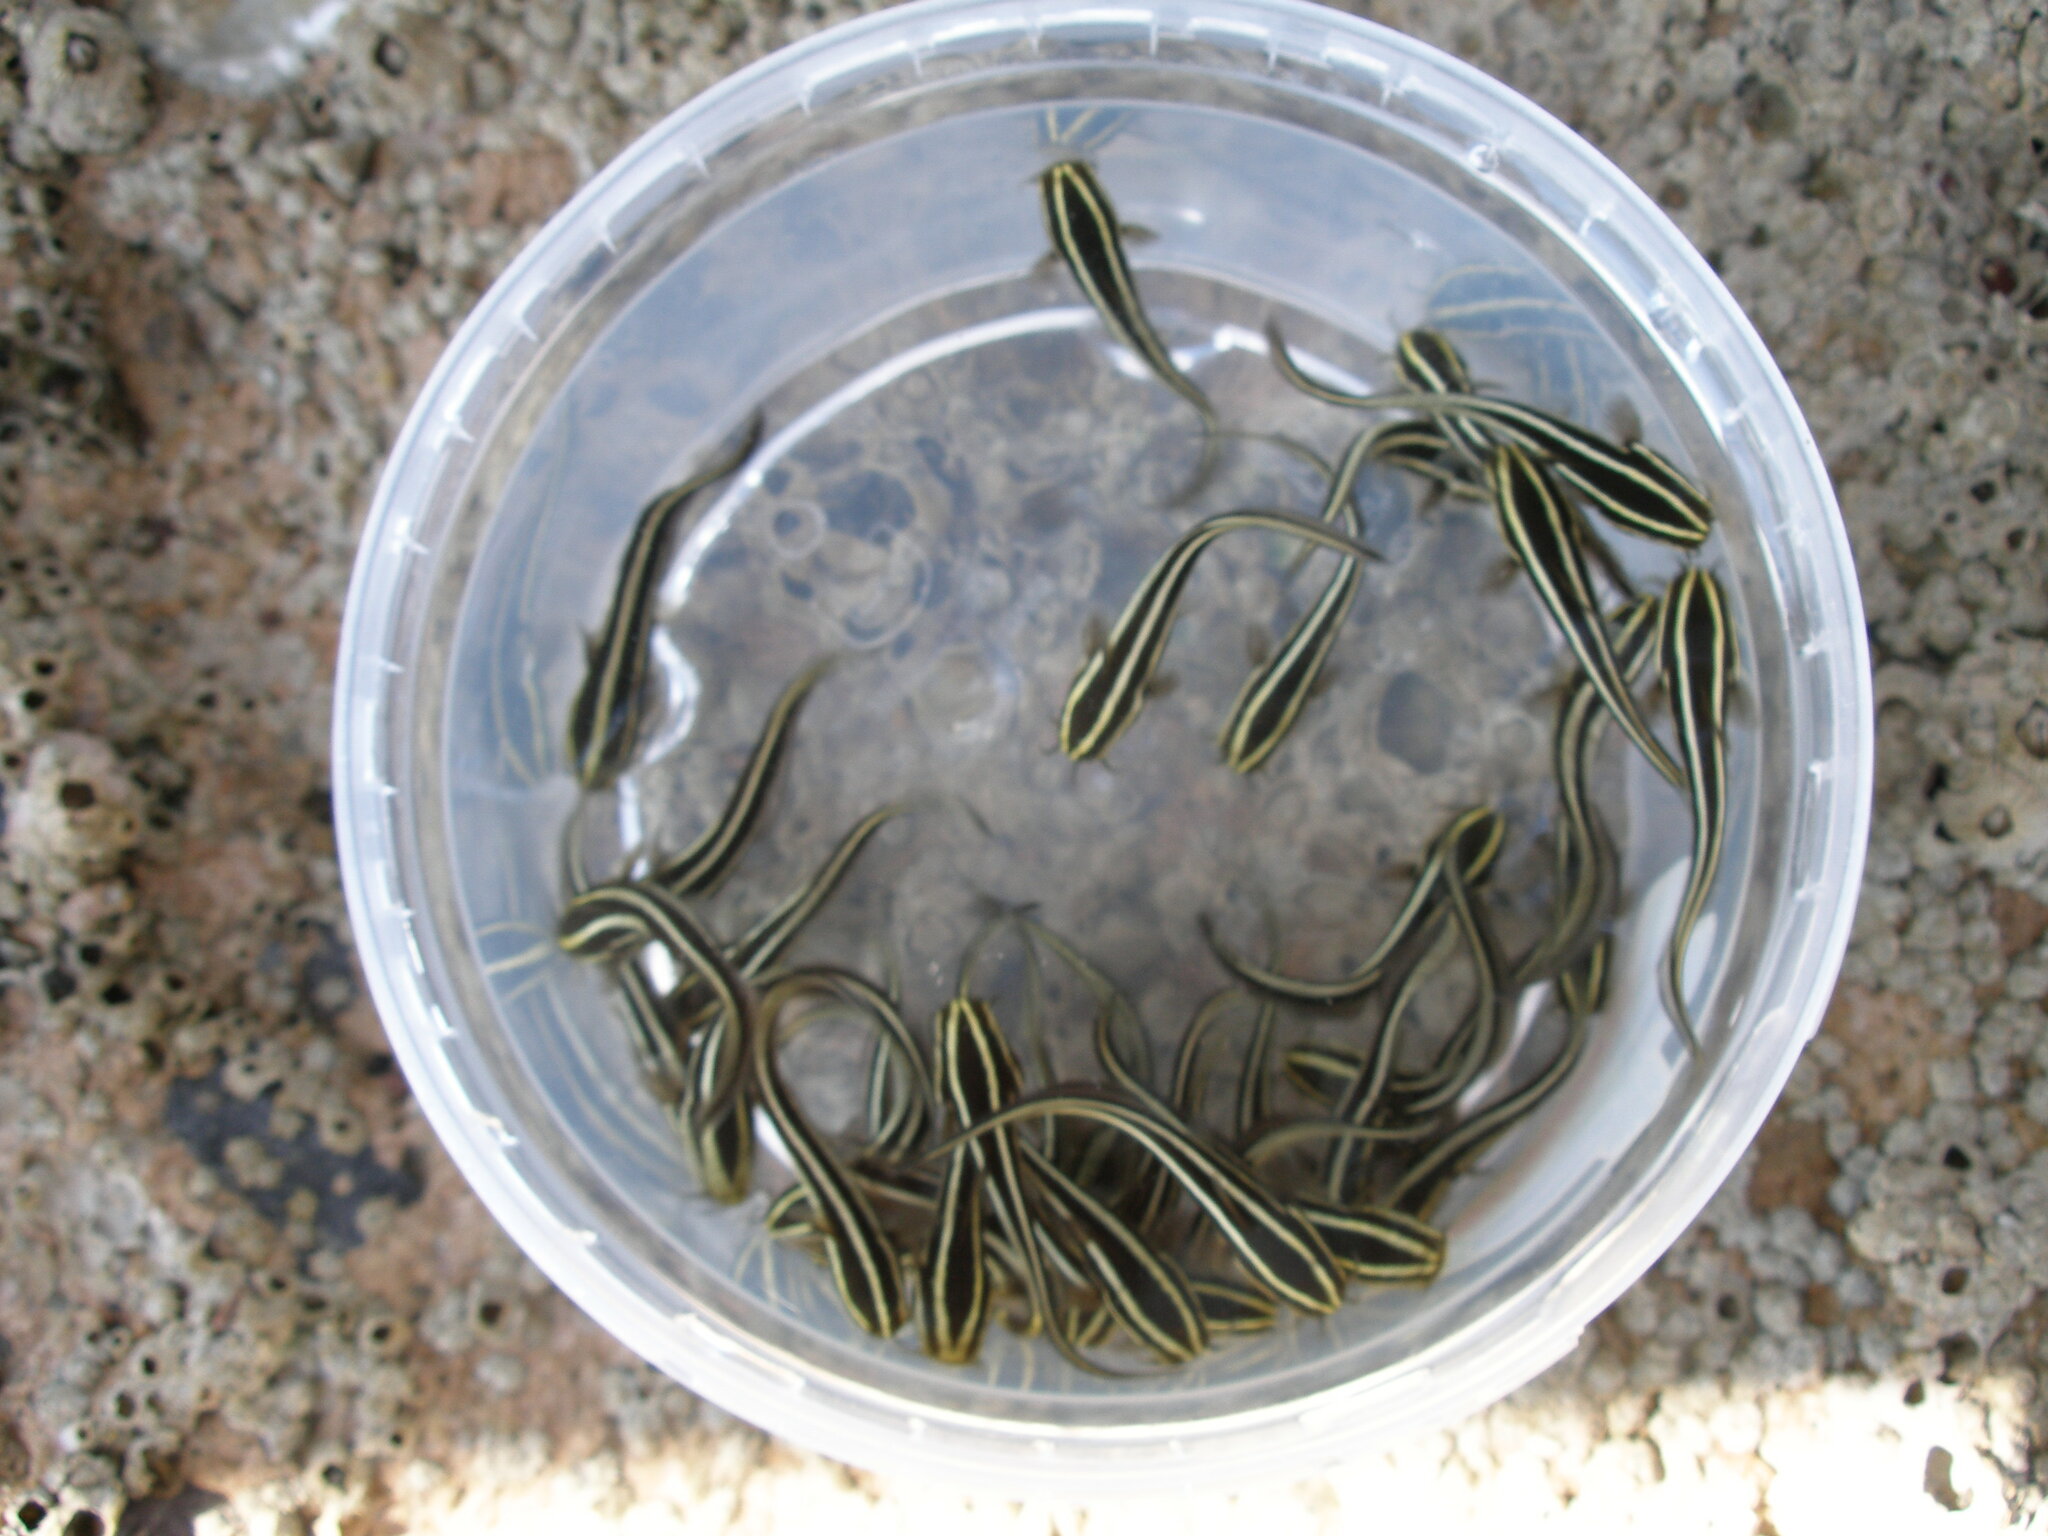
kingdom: Animalia
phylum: Chordata
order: Siluriformes
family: Plotosidae
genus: Plotosus
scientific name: Plotosus lineatus
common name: Striped eel catfish
